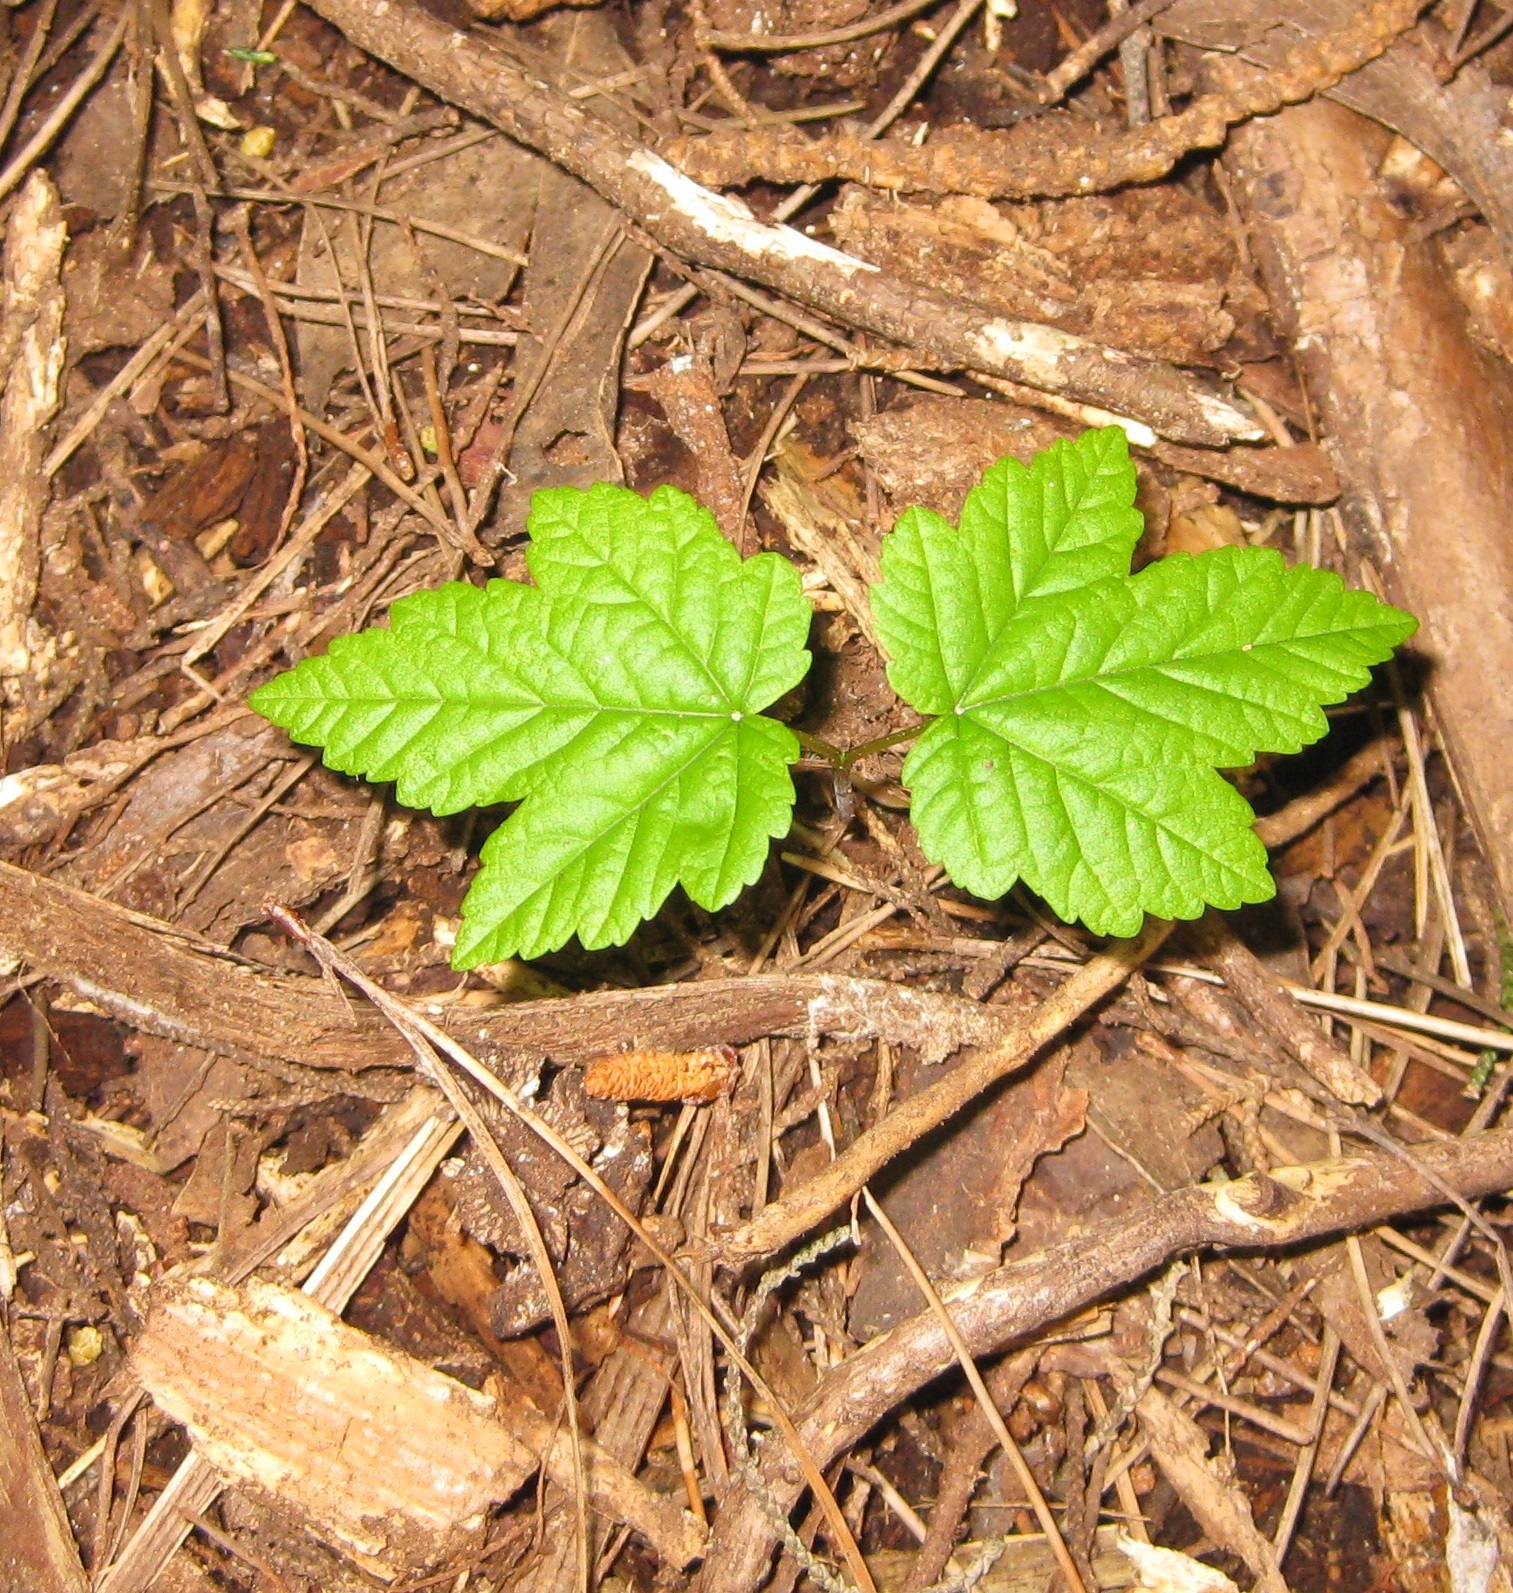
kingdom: Plantae
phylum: Tracheophyta
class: Magnoliopsida
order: Sapindales
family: Sapindaceae
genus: Acer
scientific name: Acer pseudoplatanus
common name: Sycamore
